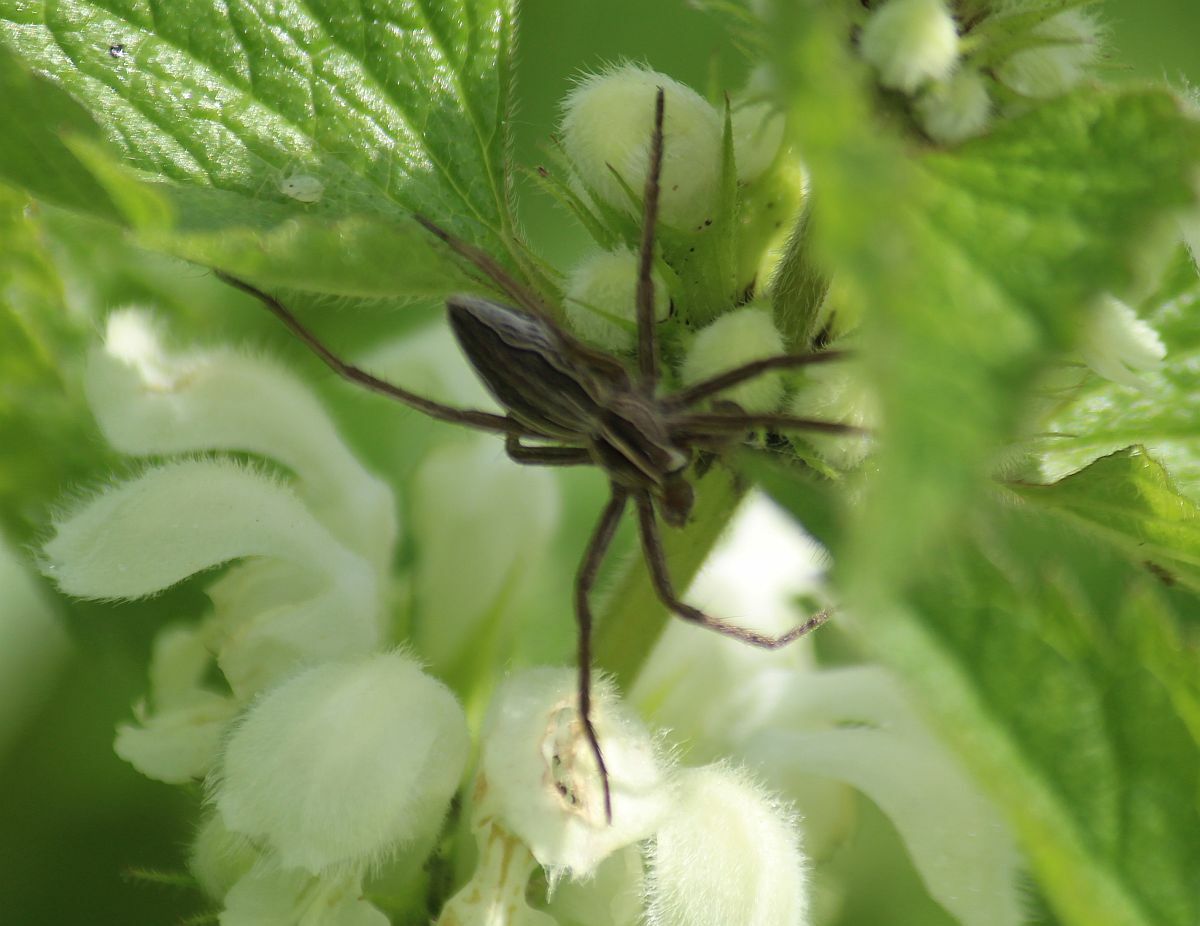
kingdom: Animalia
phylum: Arthropoda
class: Arachnida
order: Araneae
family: Pisauridae
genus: Pisaura
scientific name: Pisaura mirabilis
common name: Tent spider
